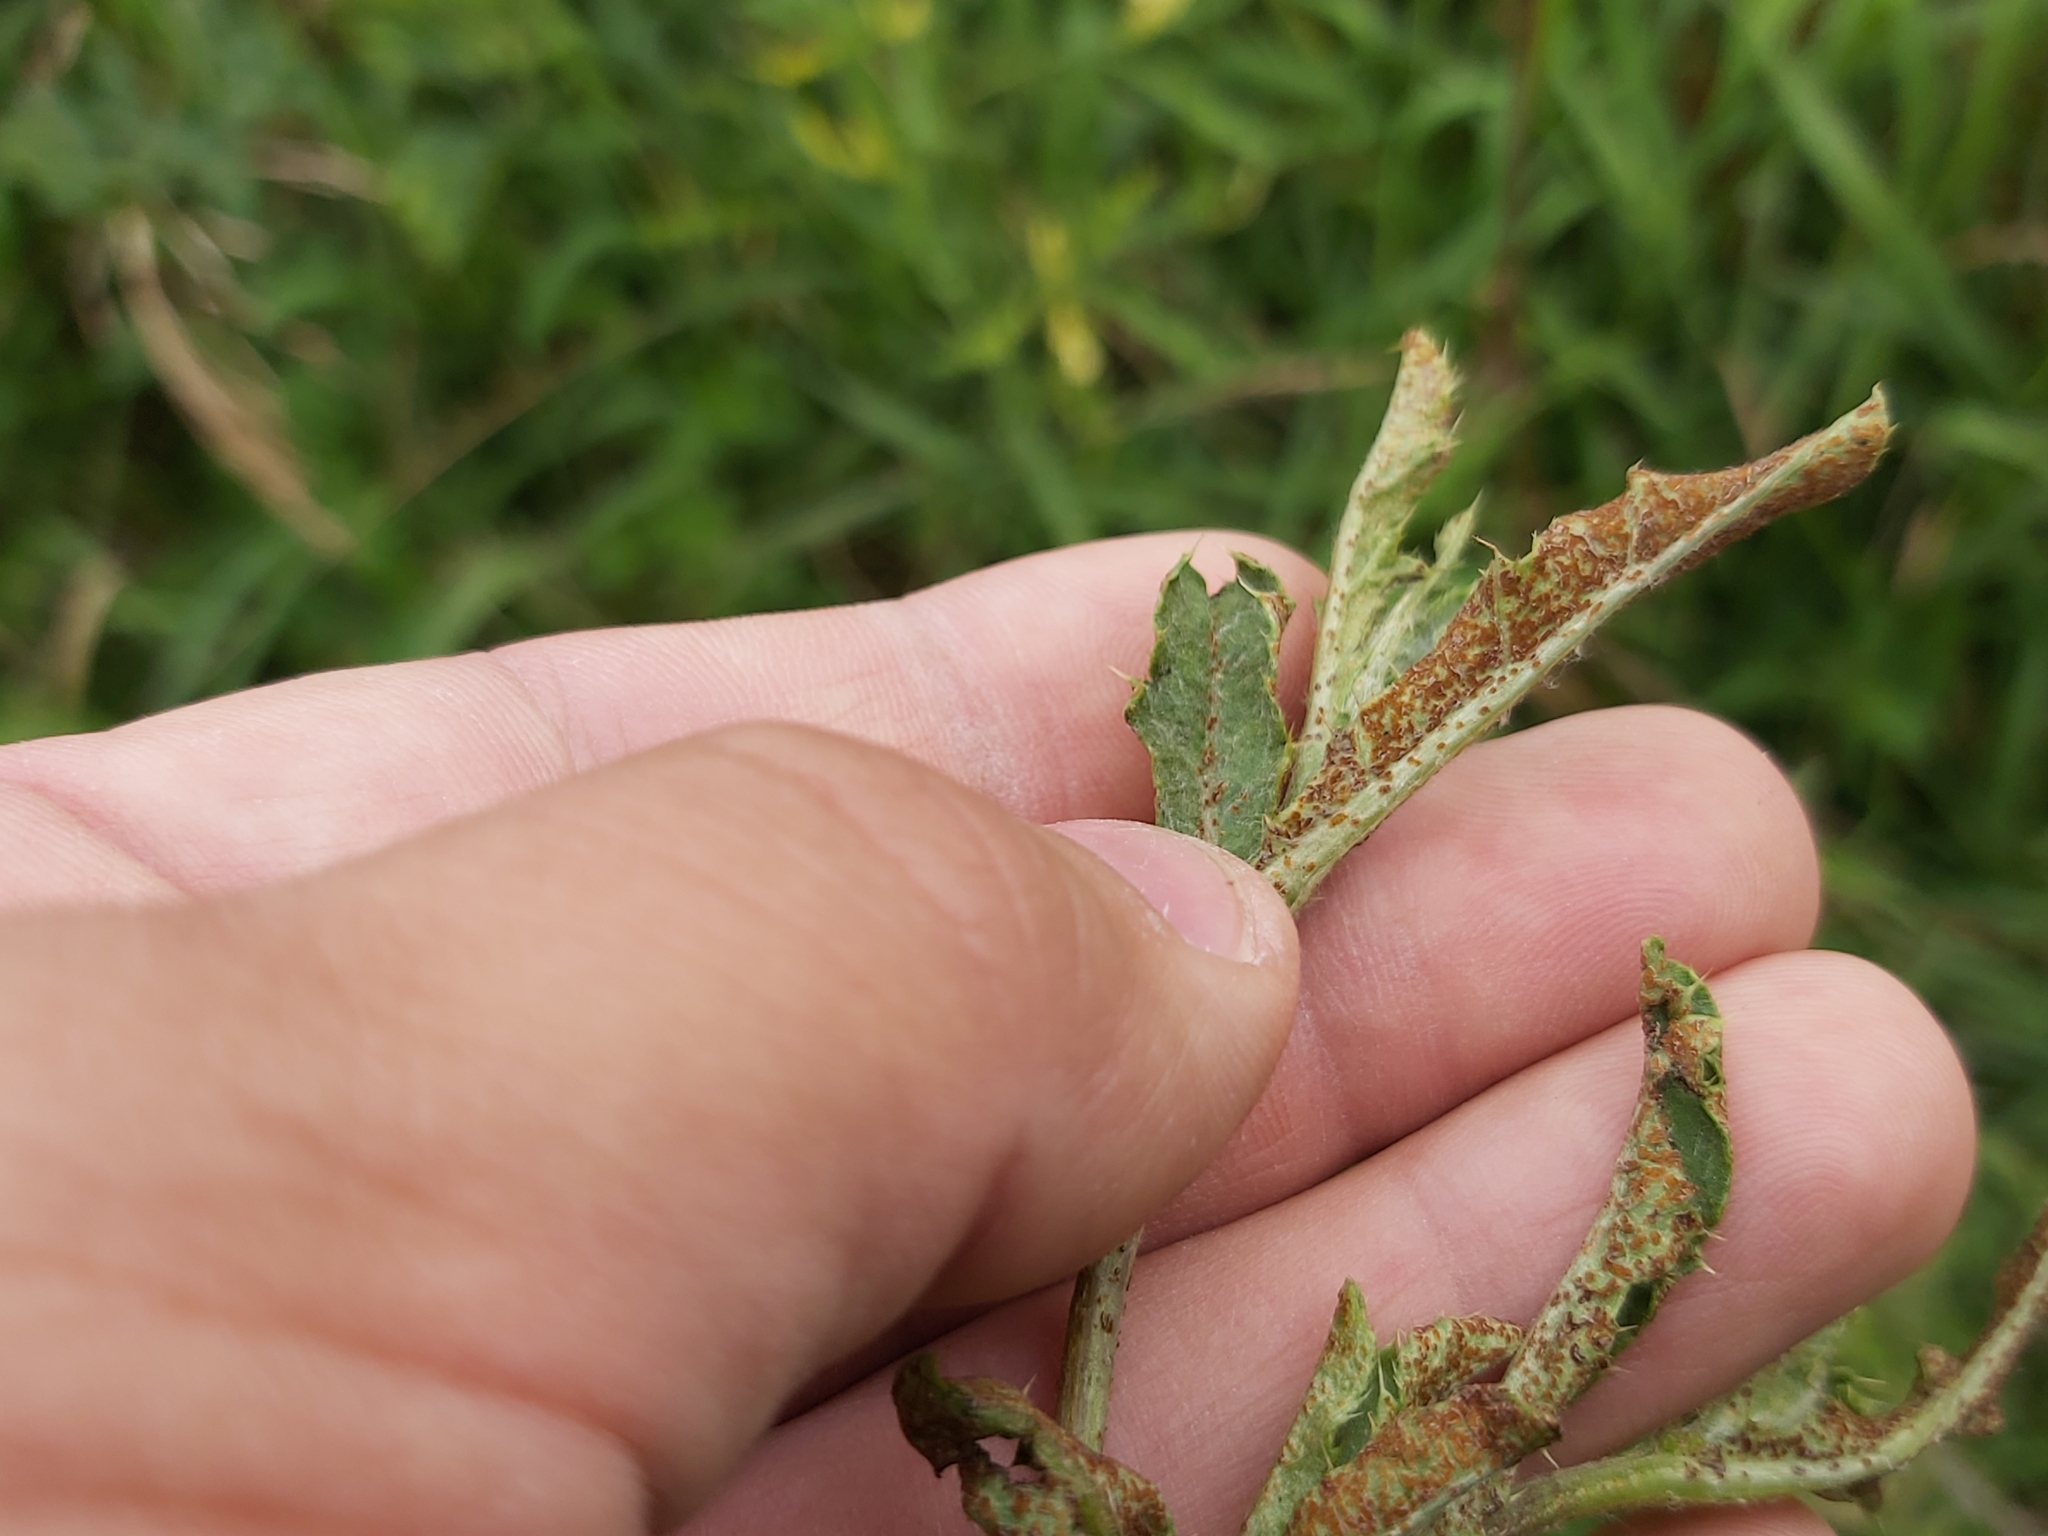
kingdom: Fungi
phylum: Basidiomycota
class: Pucciniomycetes
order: Pucciniales
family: Pucciniaceae
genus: Puccinia
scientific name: Puccinia suaveolens
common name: Thistle rust
